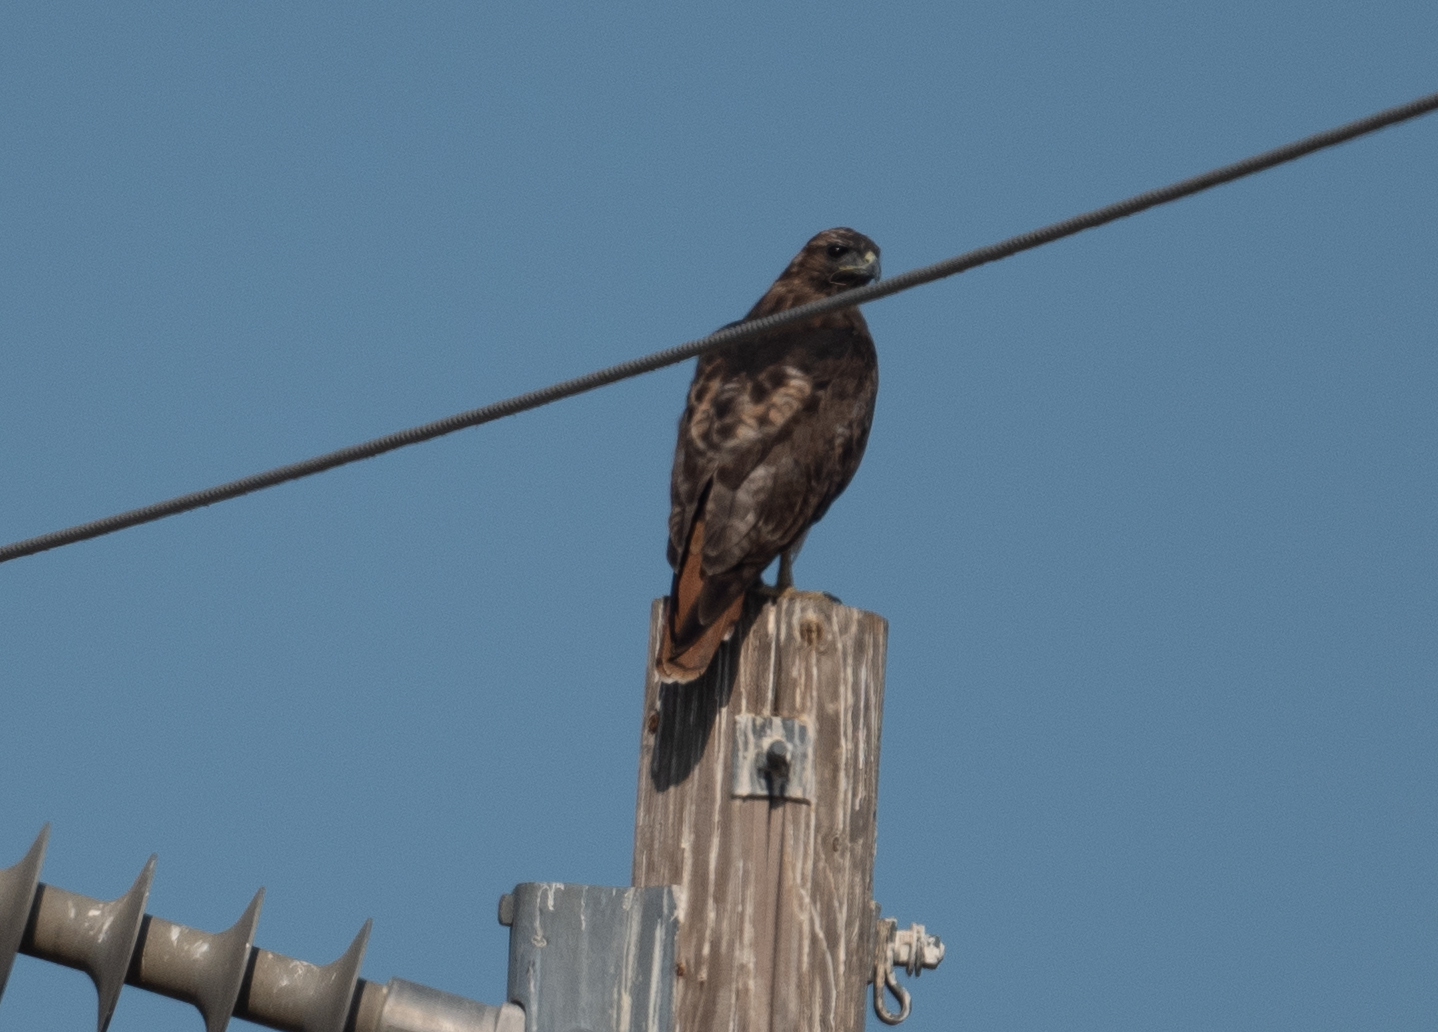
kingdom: Animalia
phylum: Chordata
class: Aves
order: Accipitriformes
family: Accipitridae
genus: Buteo
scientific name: Buteo jamaicensis
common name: Red-tailed hawk
